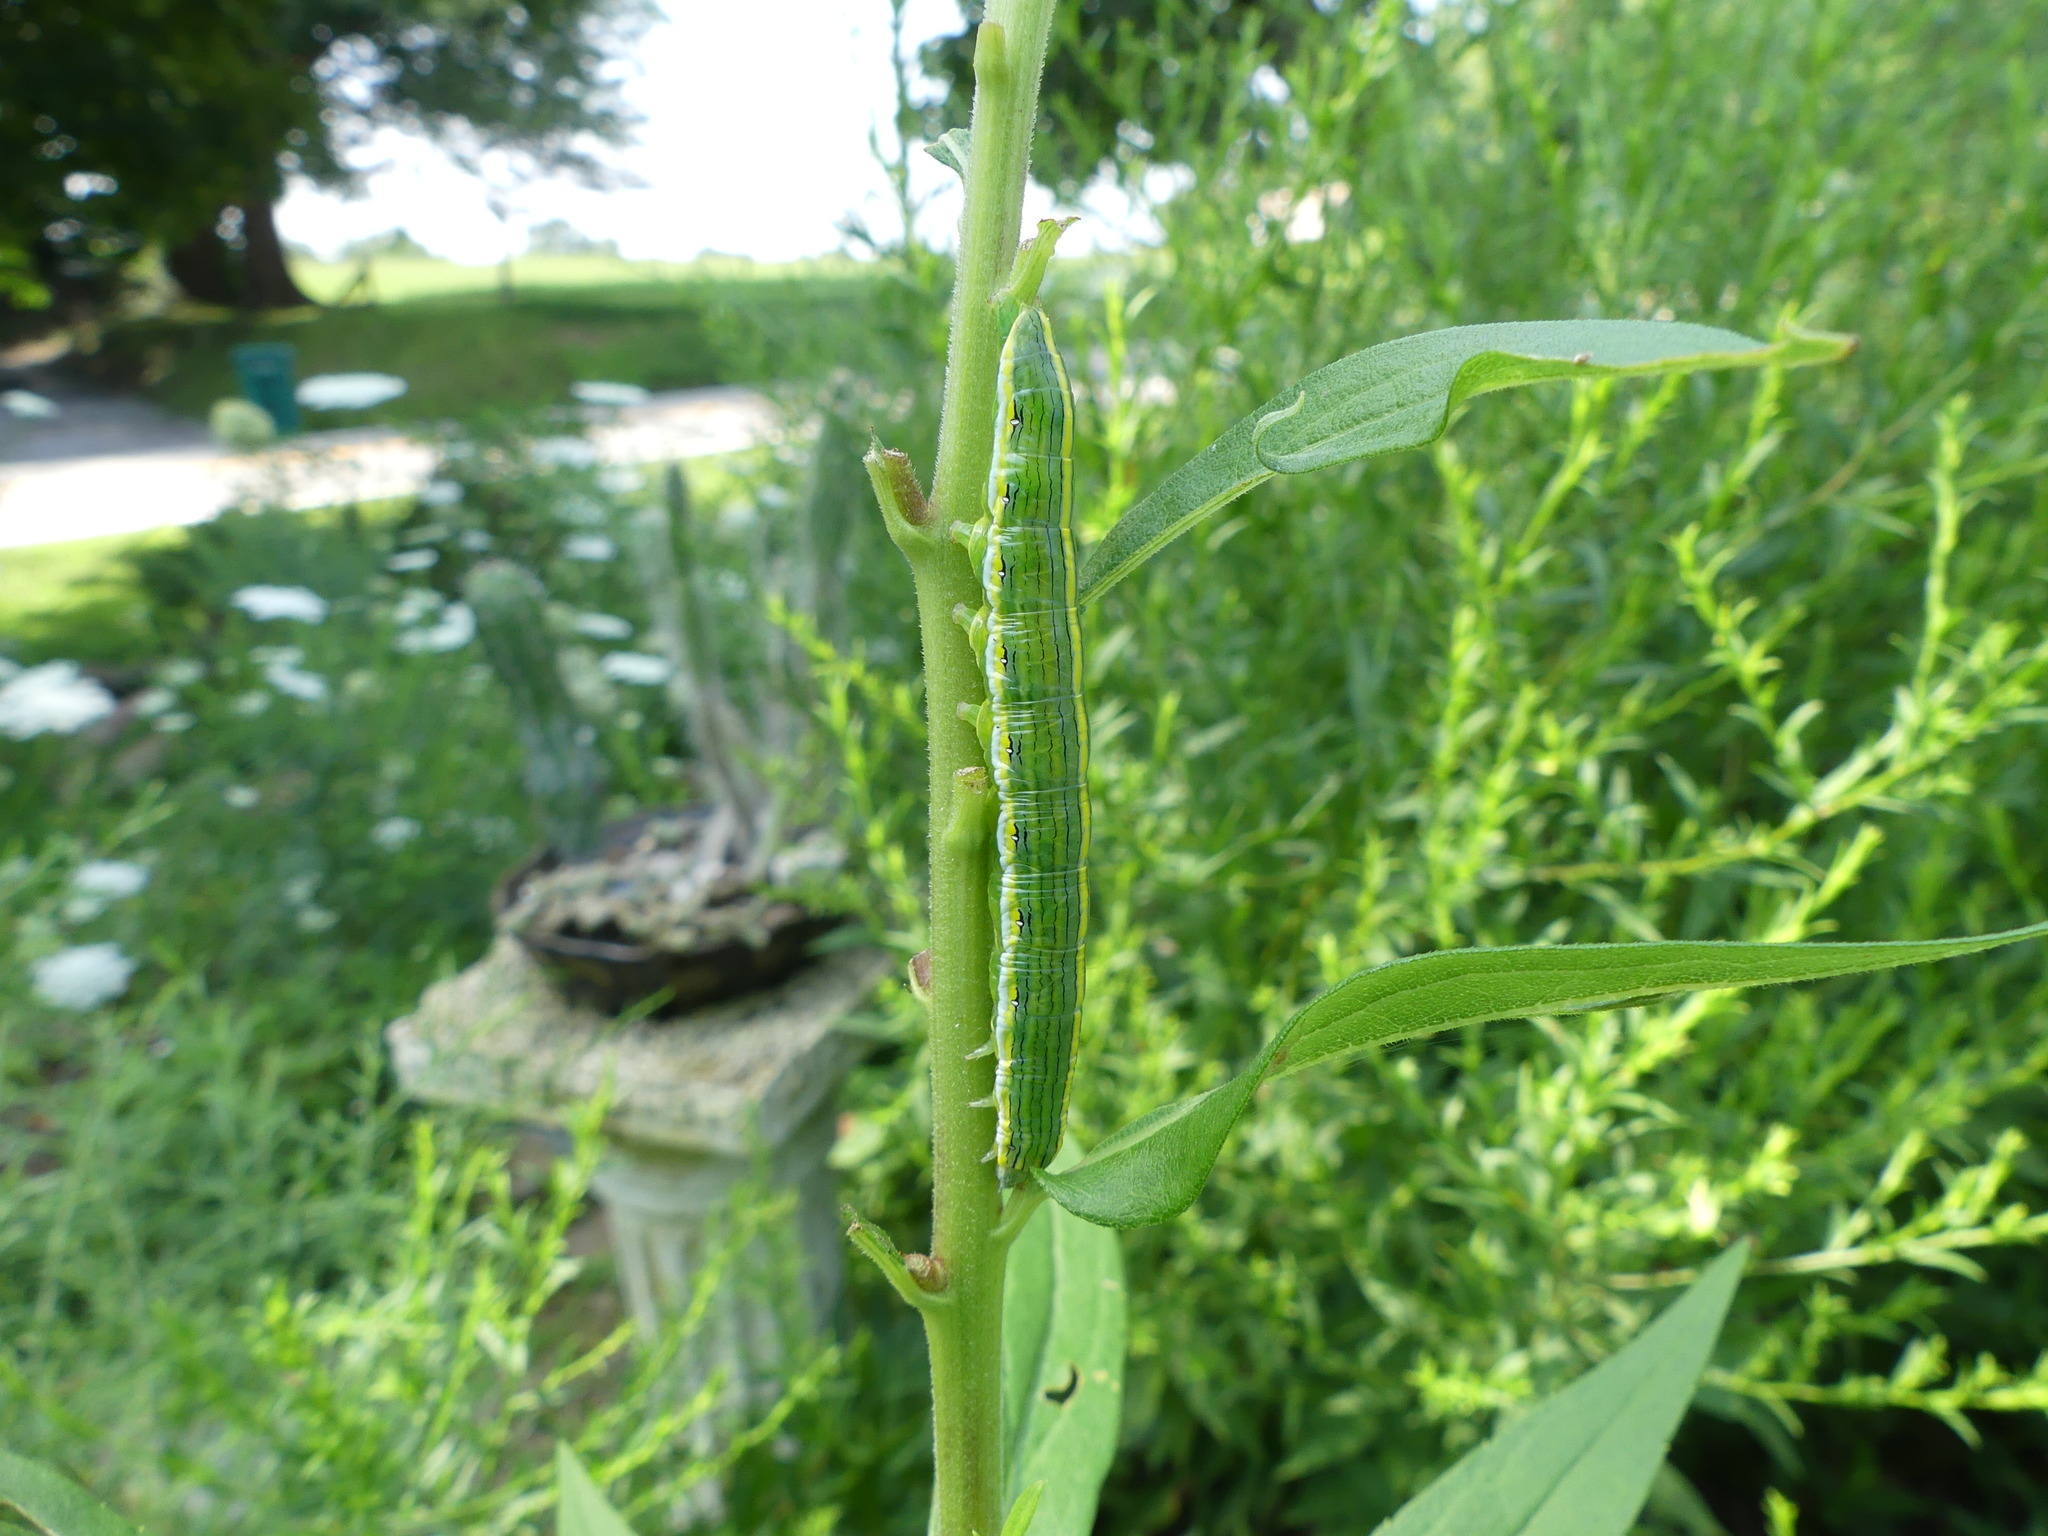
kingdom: Animalia
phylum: Arthropoda
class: Insecta
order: Lepidoptera
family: Noctuidae
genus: Cucullia
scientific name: Cucullia asteroides
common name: Asteroid moth
